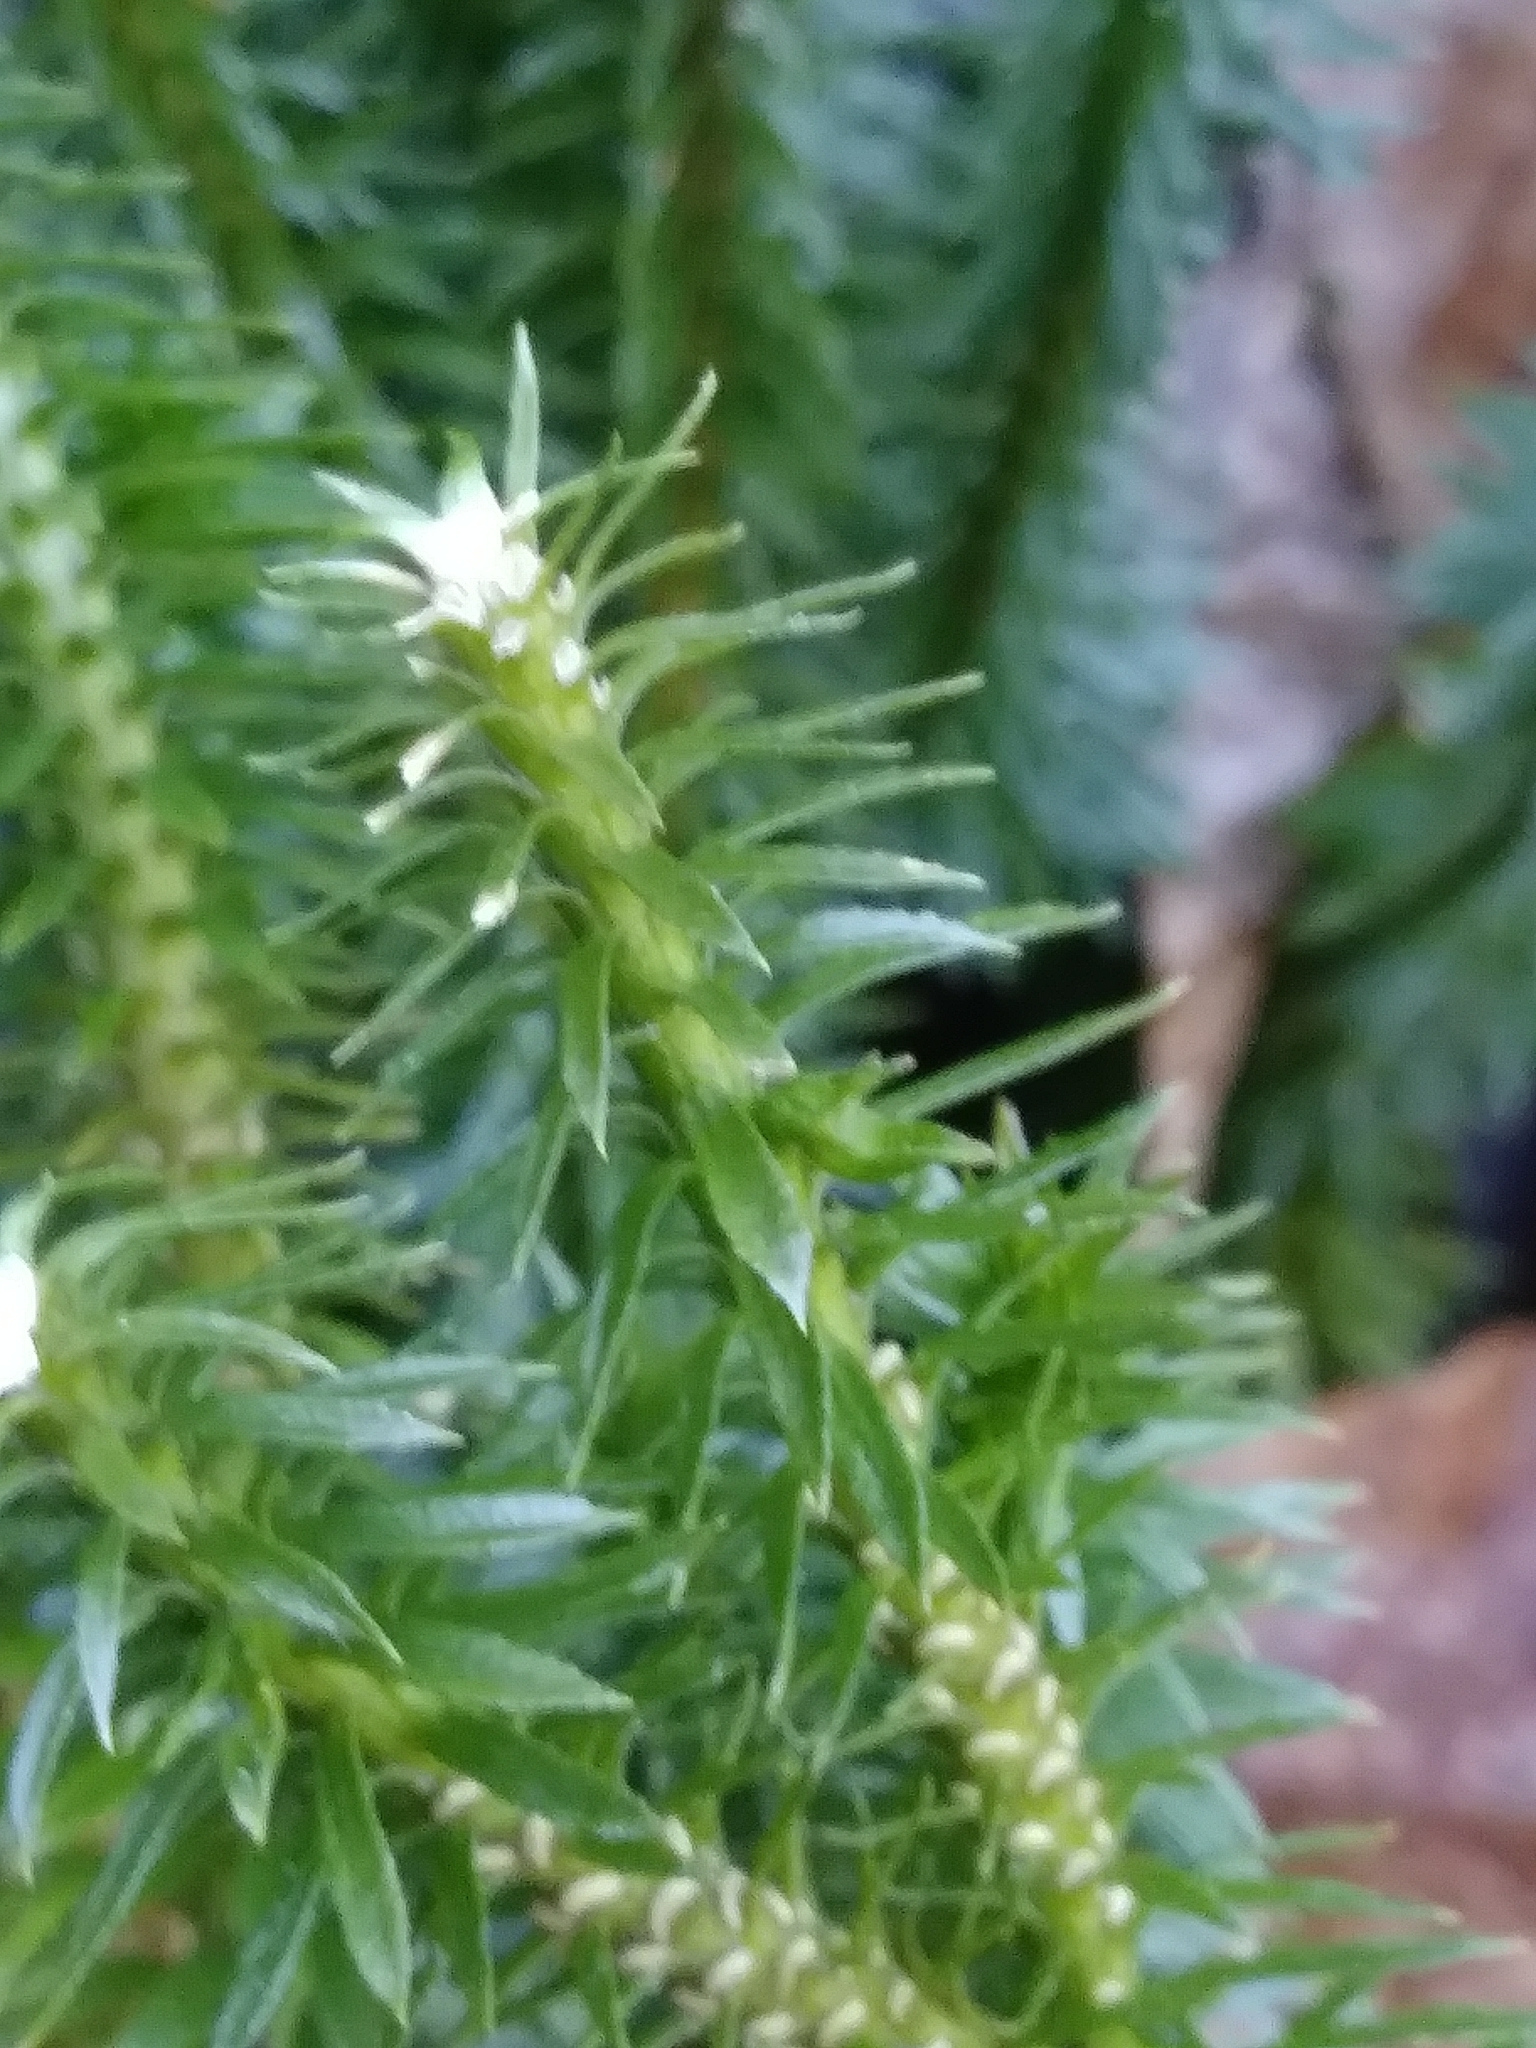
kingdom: Plantae
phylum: Tracheophyta
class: Lycopodiopsida
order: Lycopodiales
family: Lycopodiaceae
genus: Huperzia
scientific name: Huperzia lucidula
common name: Shining clubmoss
